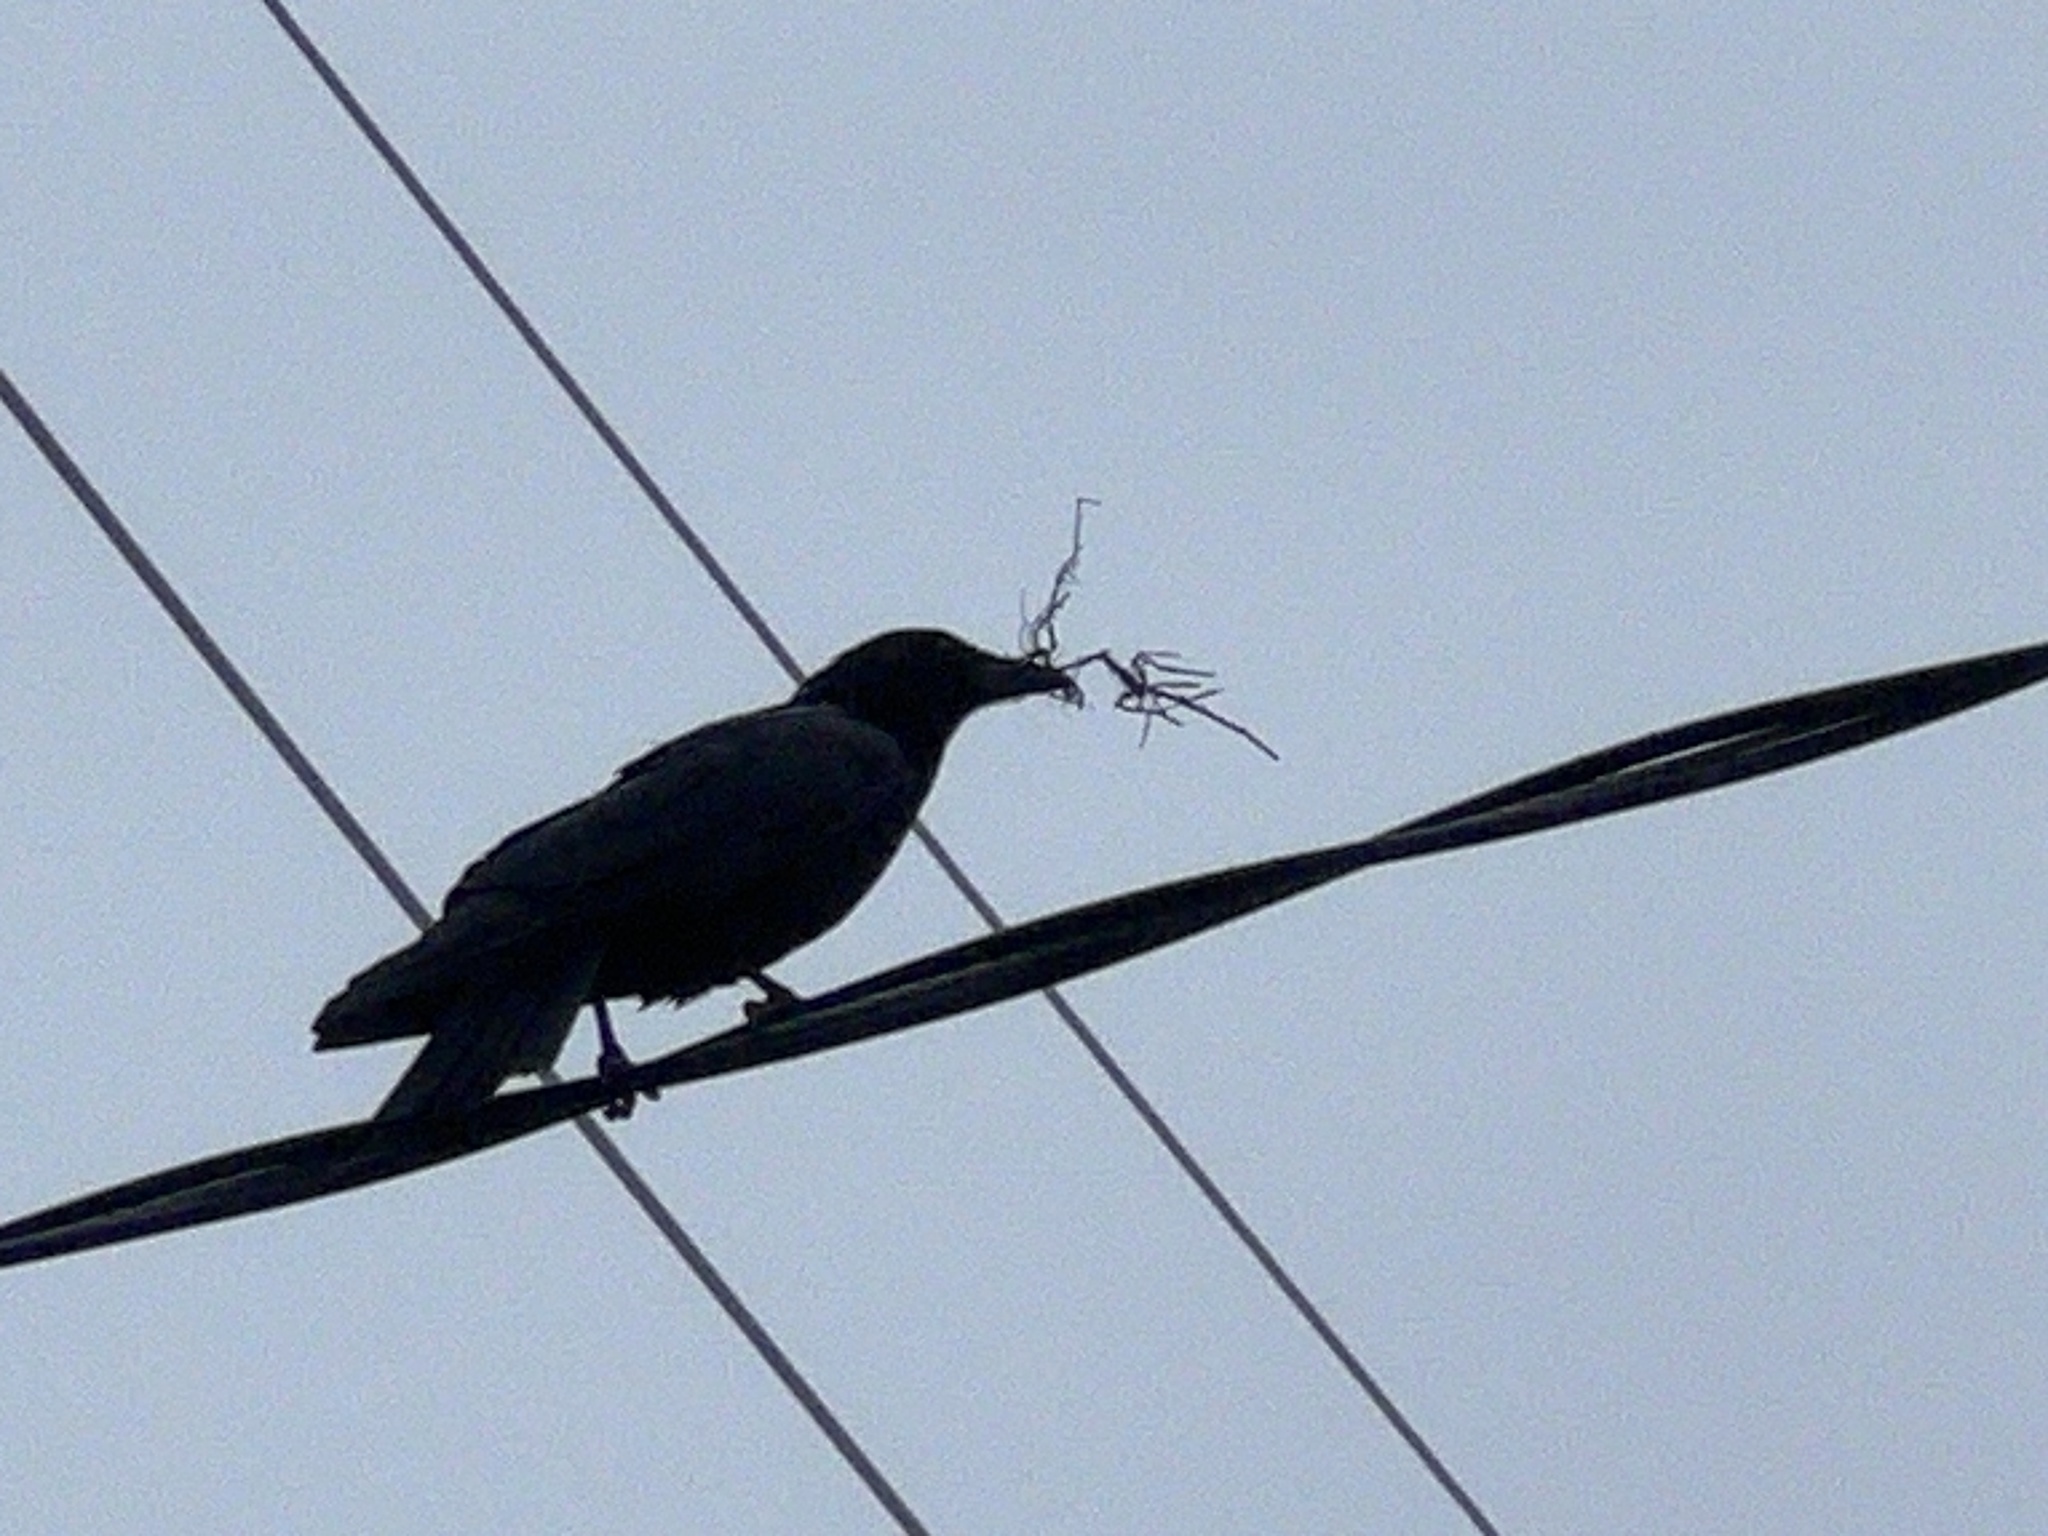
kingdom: Animalia
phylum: Chordata
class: Aves
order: Passeriformes
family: Corvidae
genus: Corvus
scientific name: Corvus brachyrhynchos
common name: American crow
